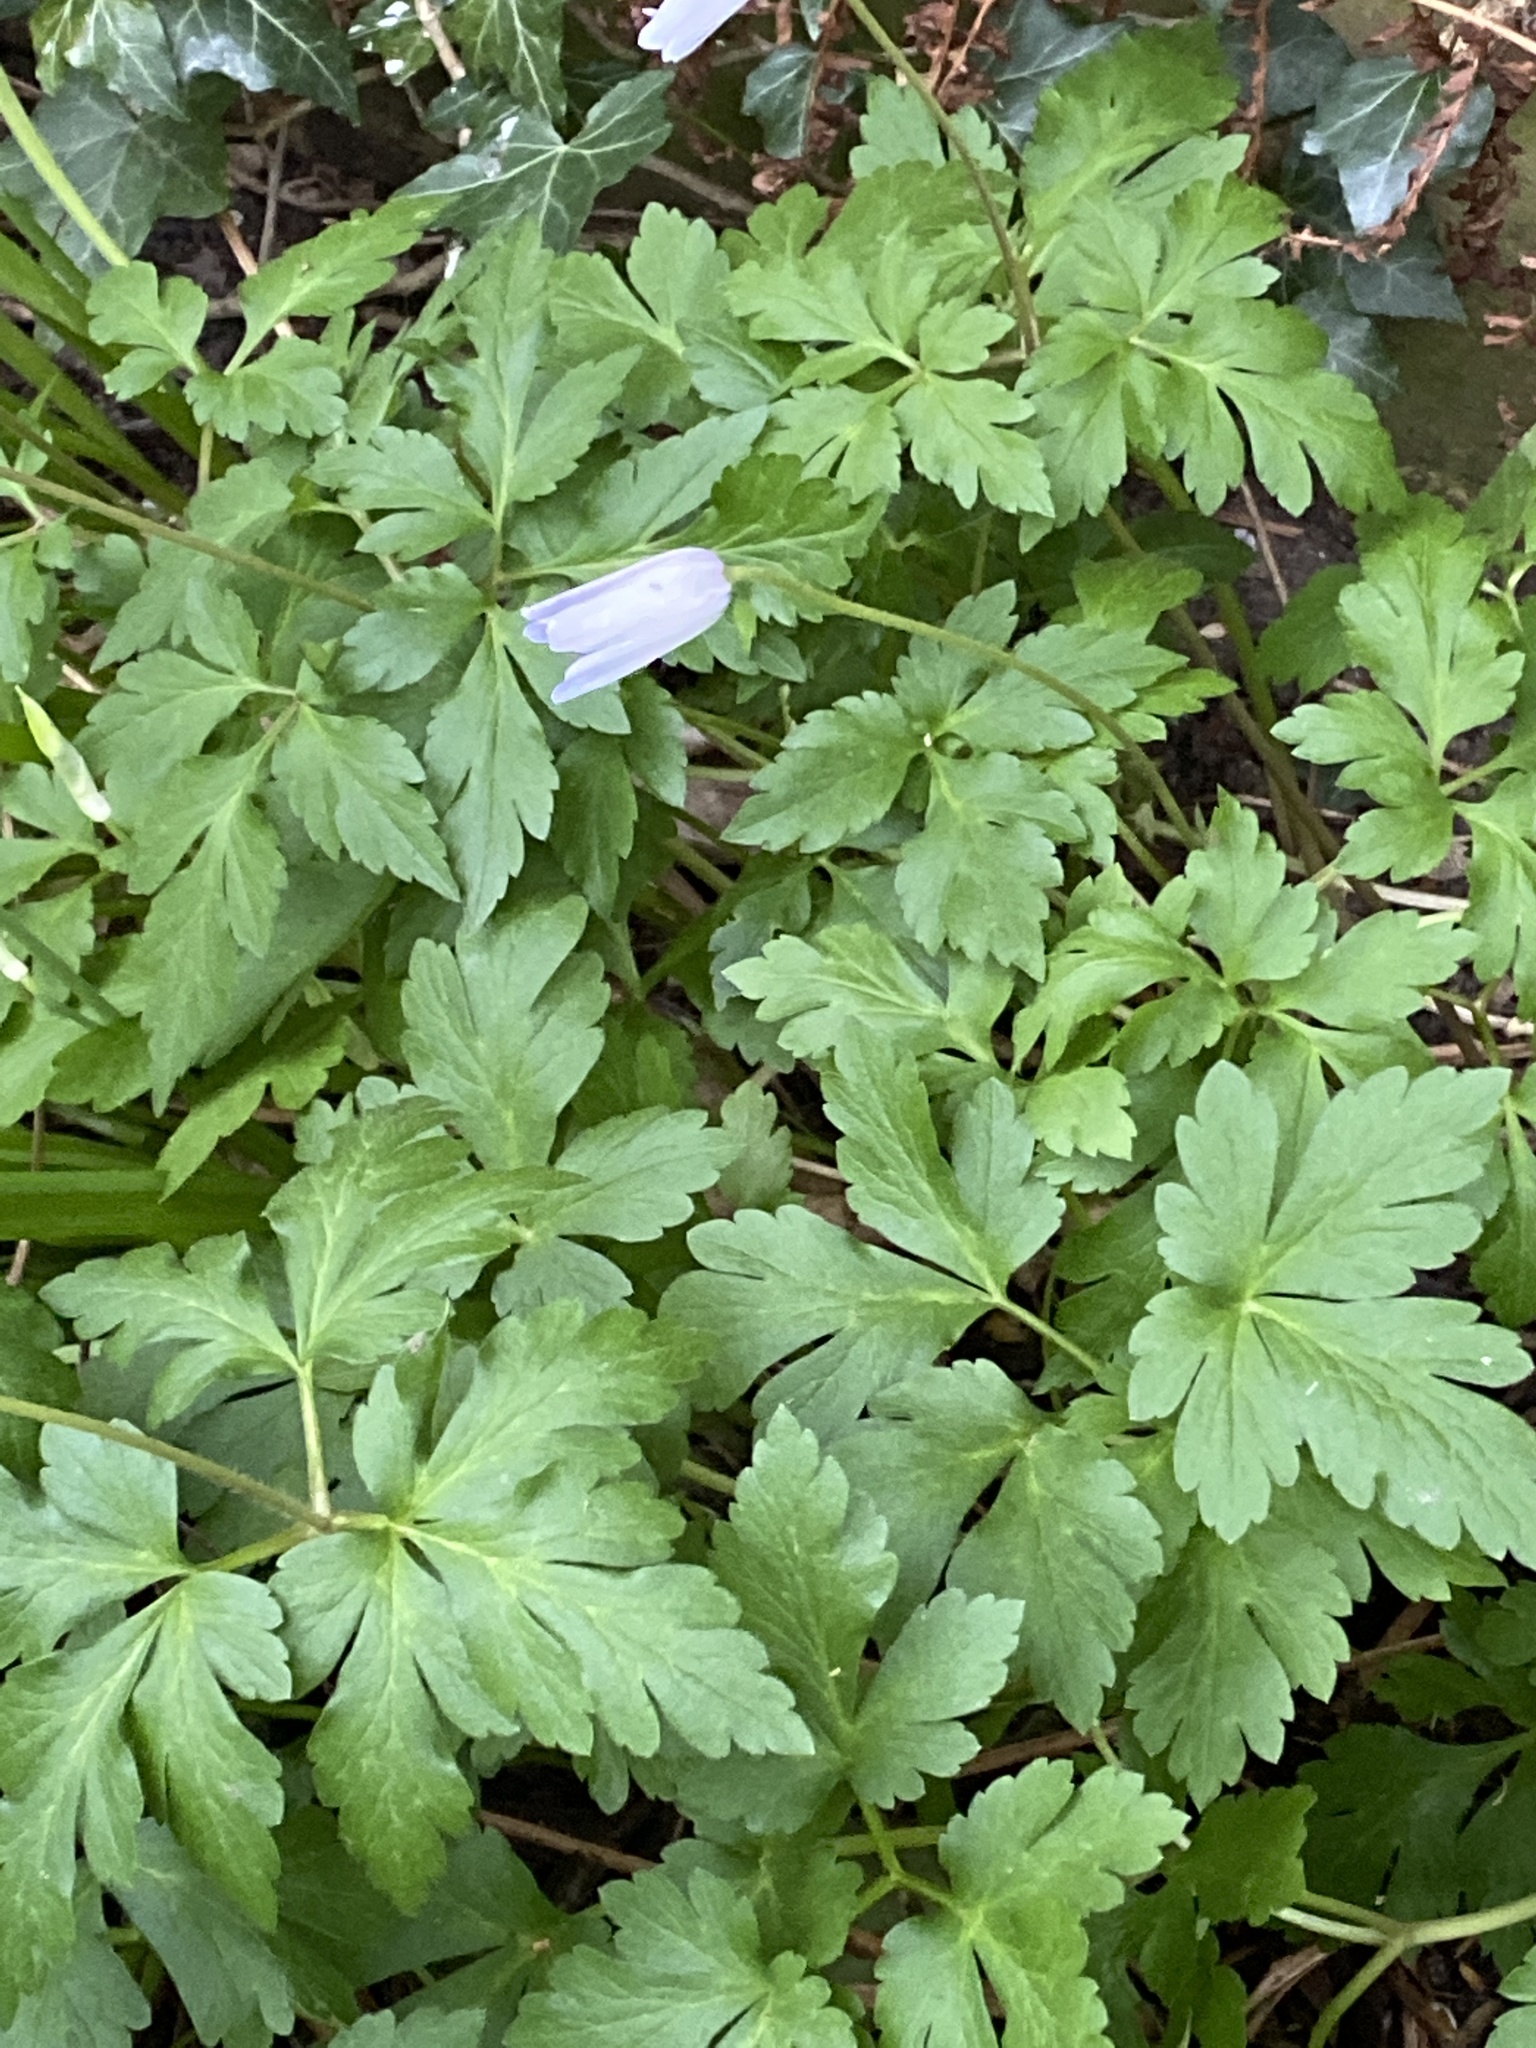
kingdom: Plantae
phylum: Tracheophyta
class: Magnoliopsida
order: Ranunculales
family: Ranunculaceae
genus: Anemone
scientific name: Anemone apennina
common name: Blue anemone
